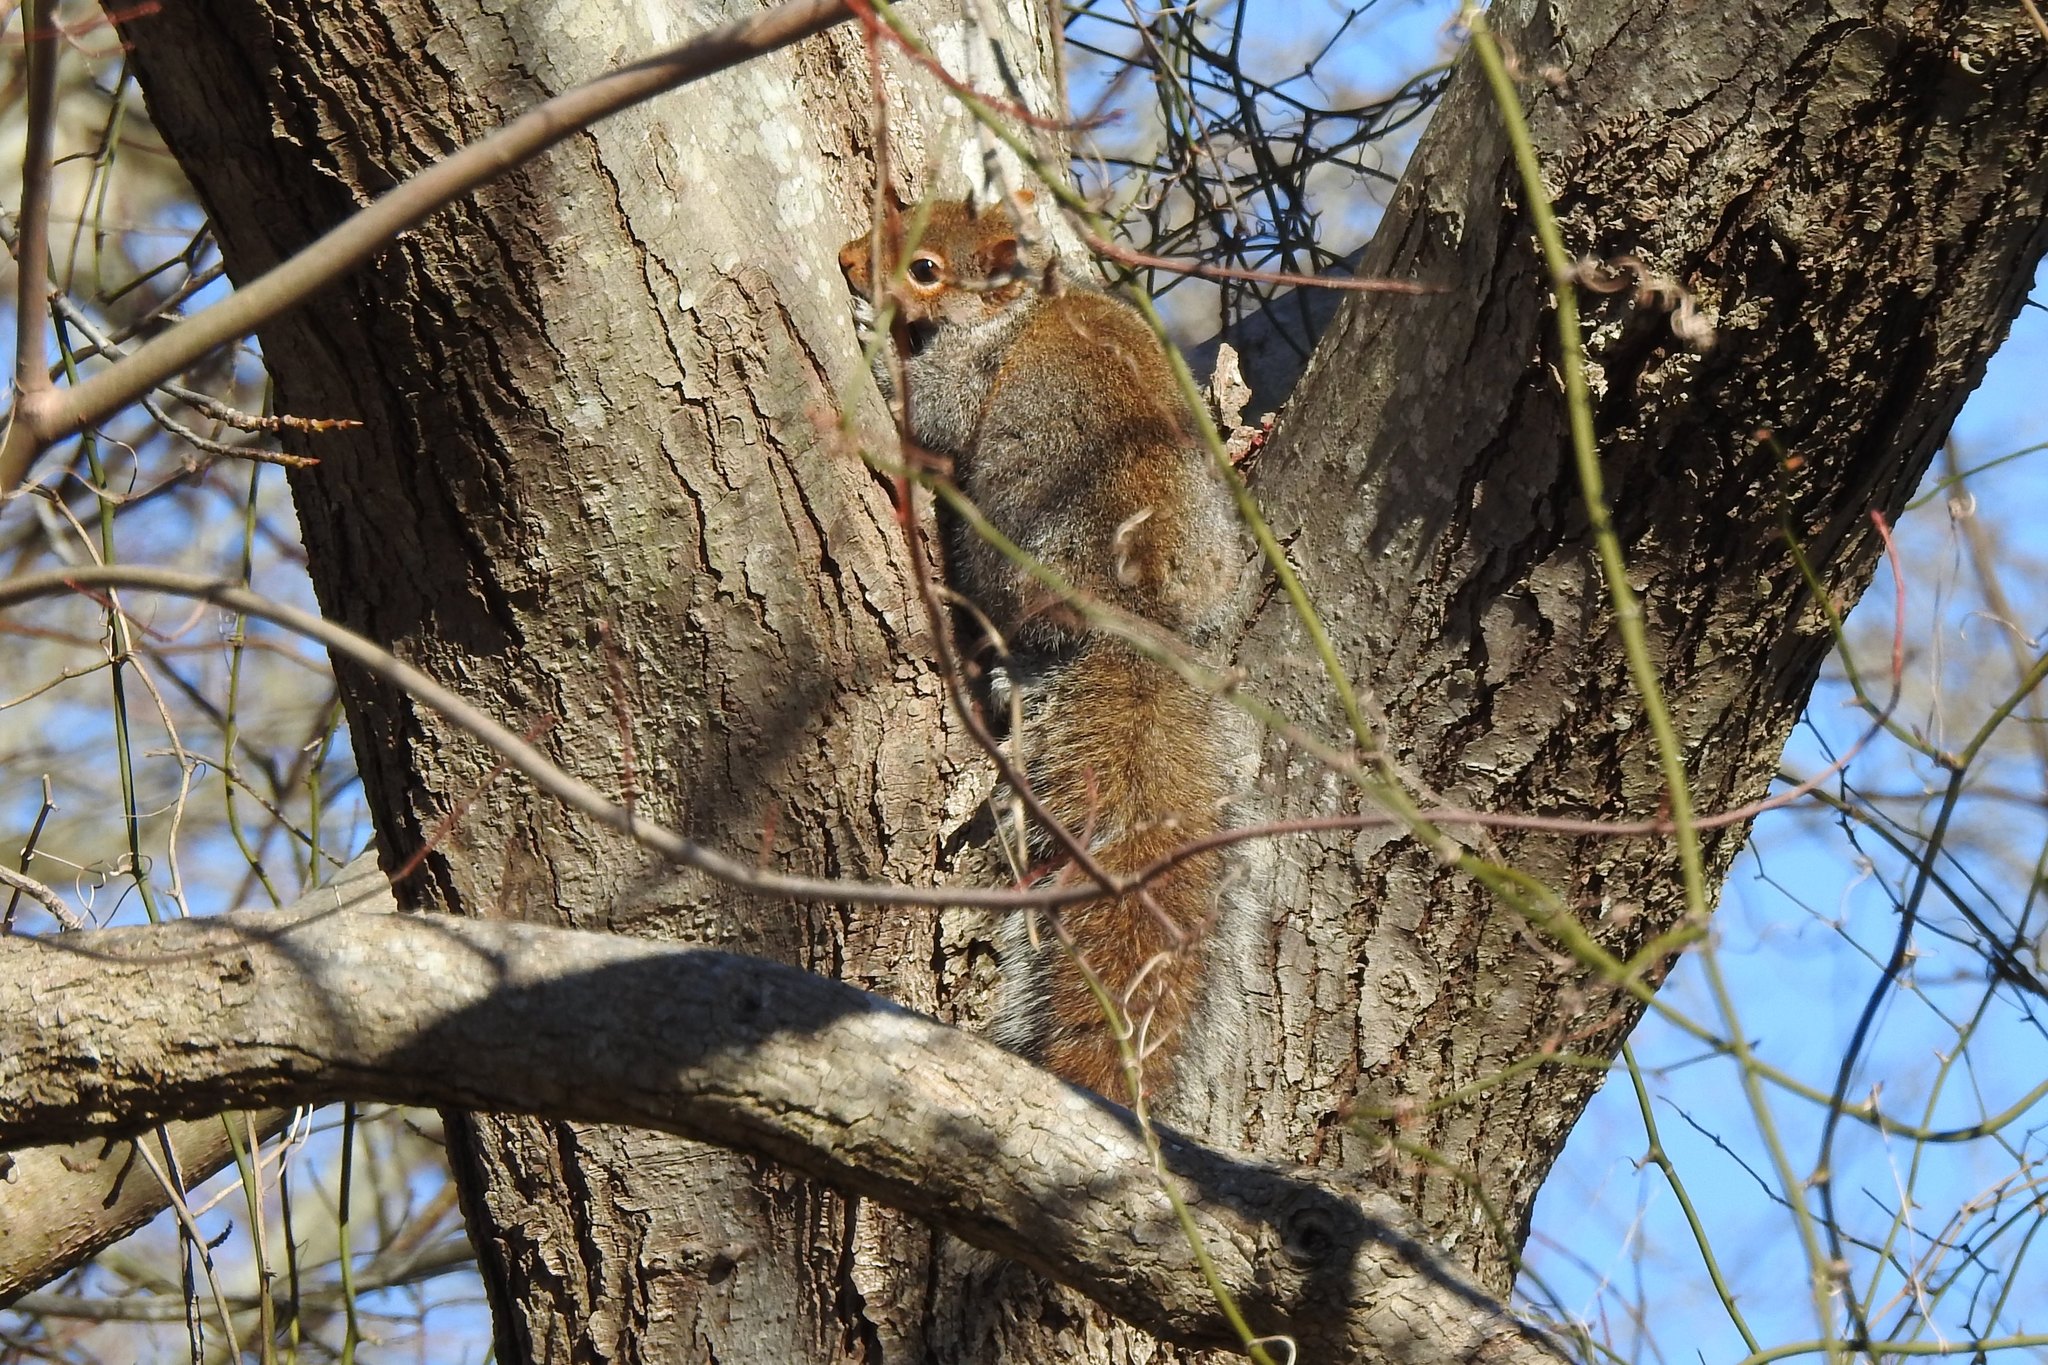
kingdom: Animalia
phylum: Chordata
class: Mammalia
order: Rodentia
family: Sciuridae
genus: Sciurus
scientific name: Sciurus carolinensis
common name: Eastern gray squirrel
